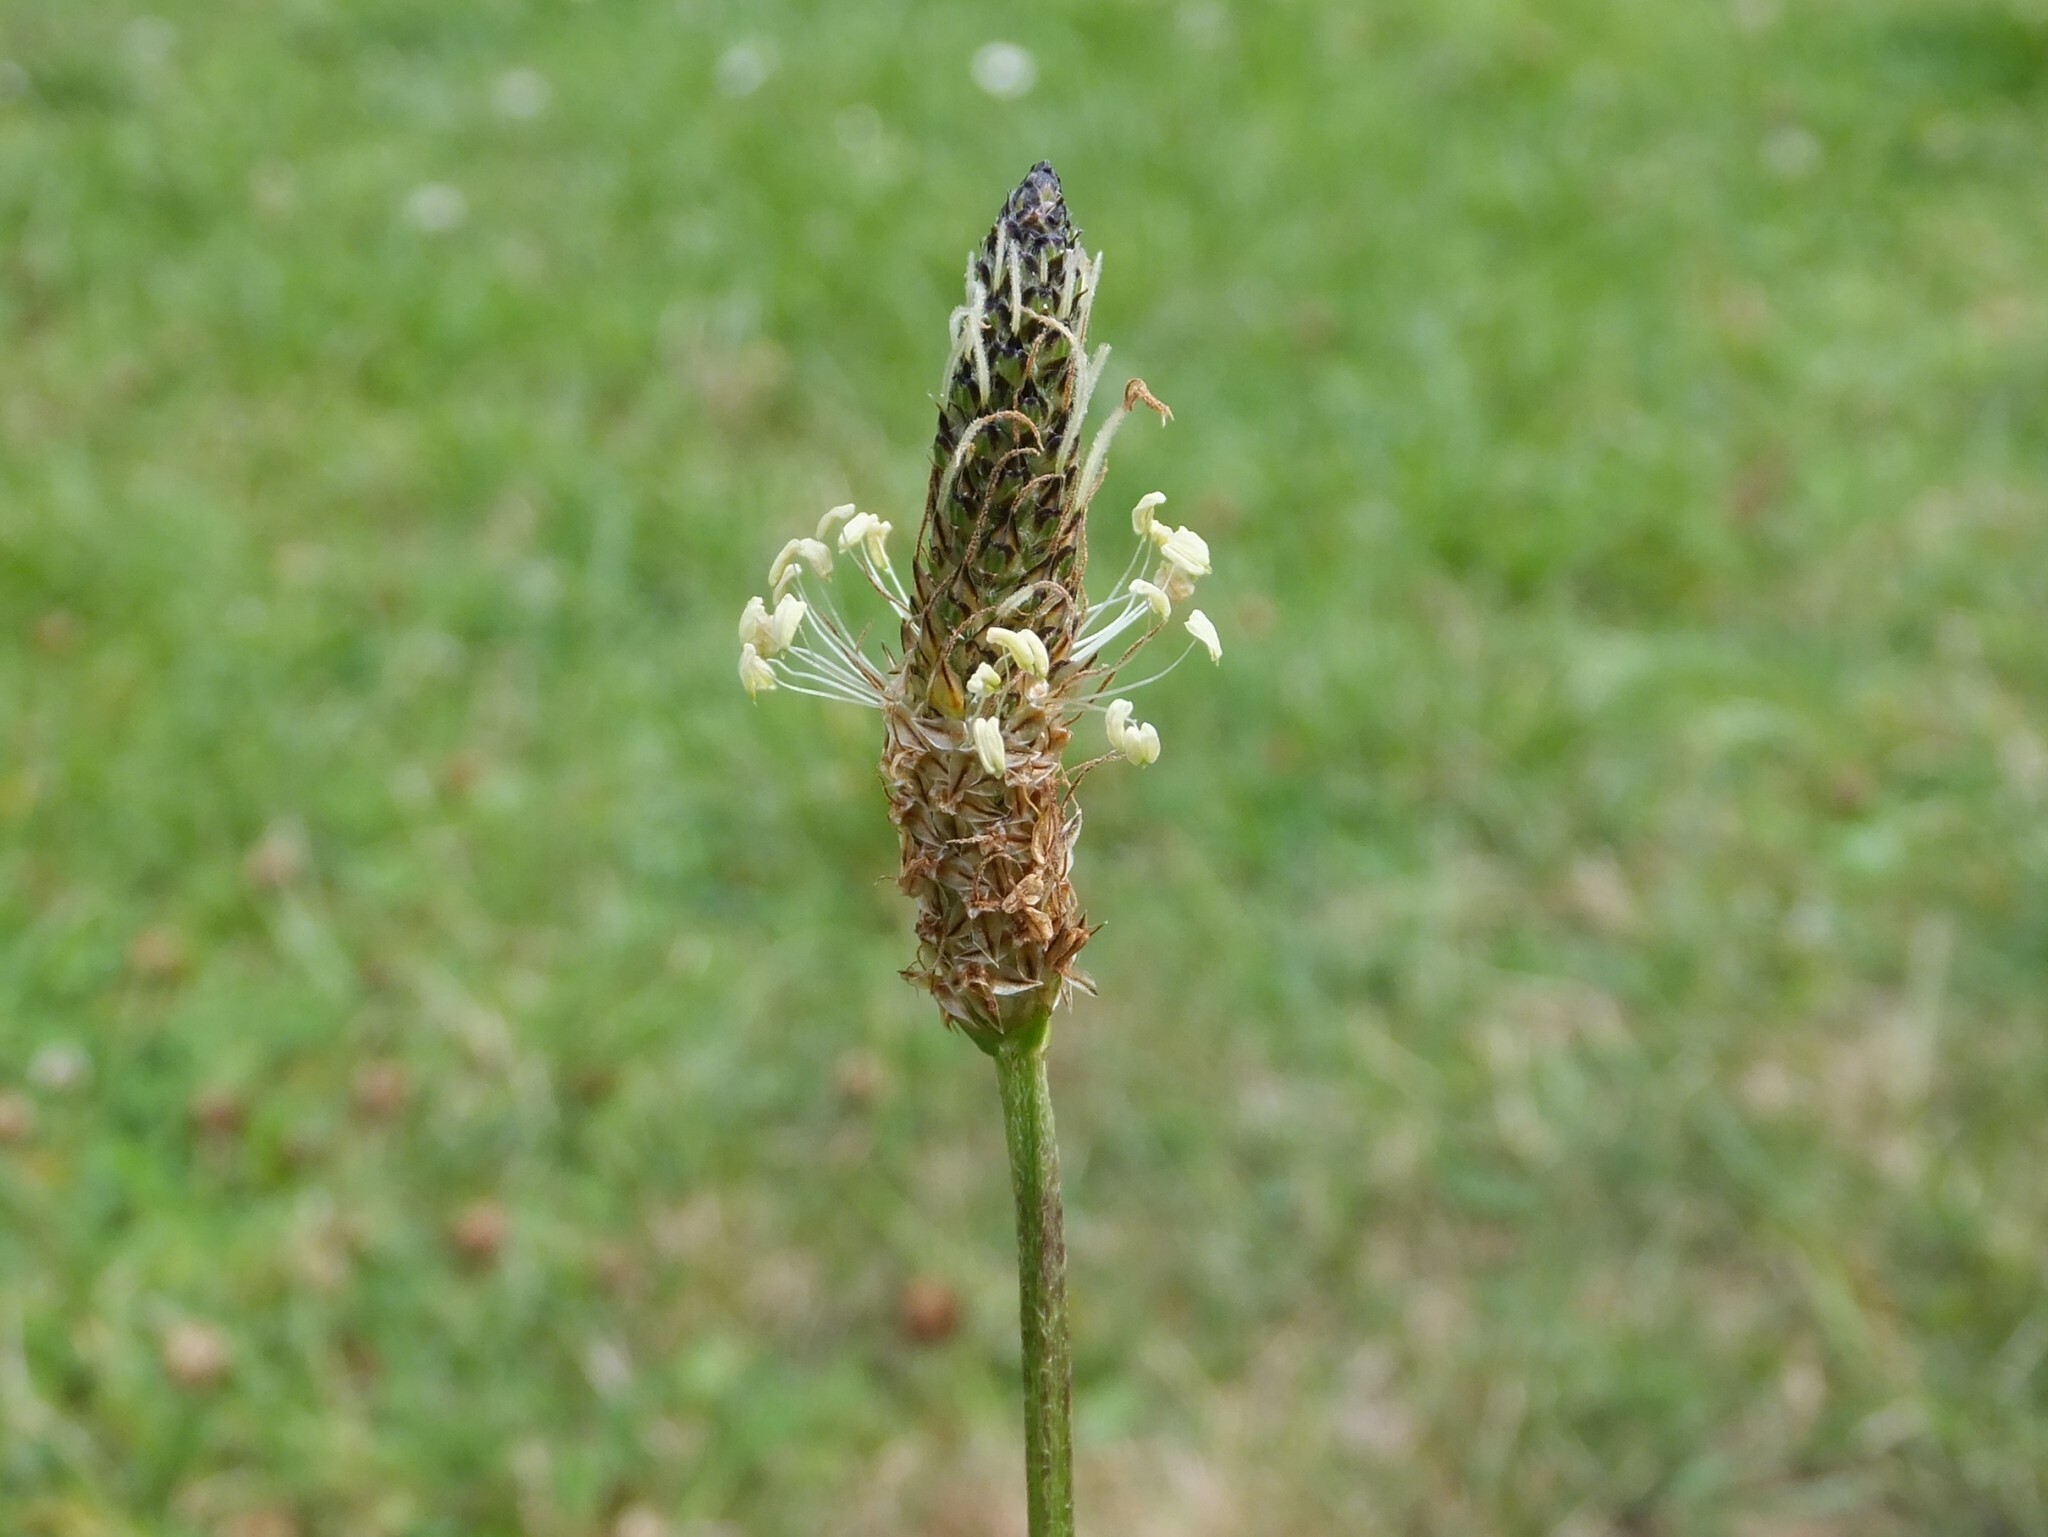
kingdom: Plantae
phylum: Tracheophyta
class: Magnoliopsida
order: Lamiales
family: Plantaginaceae
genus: Plantago
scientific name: Plantago lanceolata
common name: Ribwort plantain
